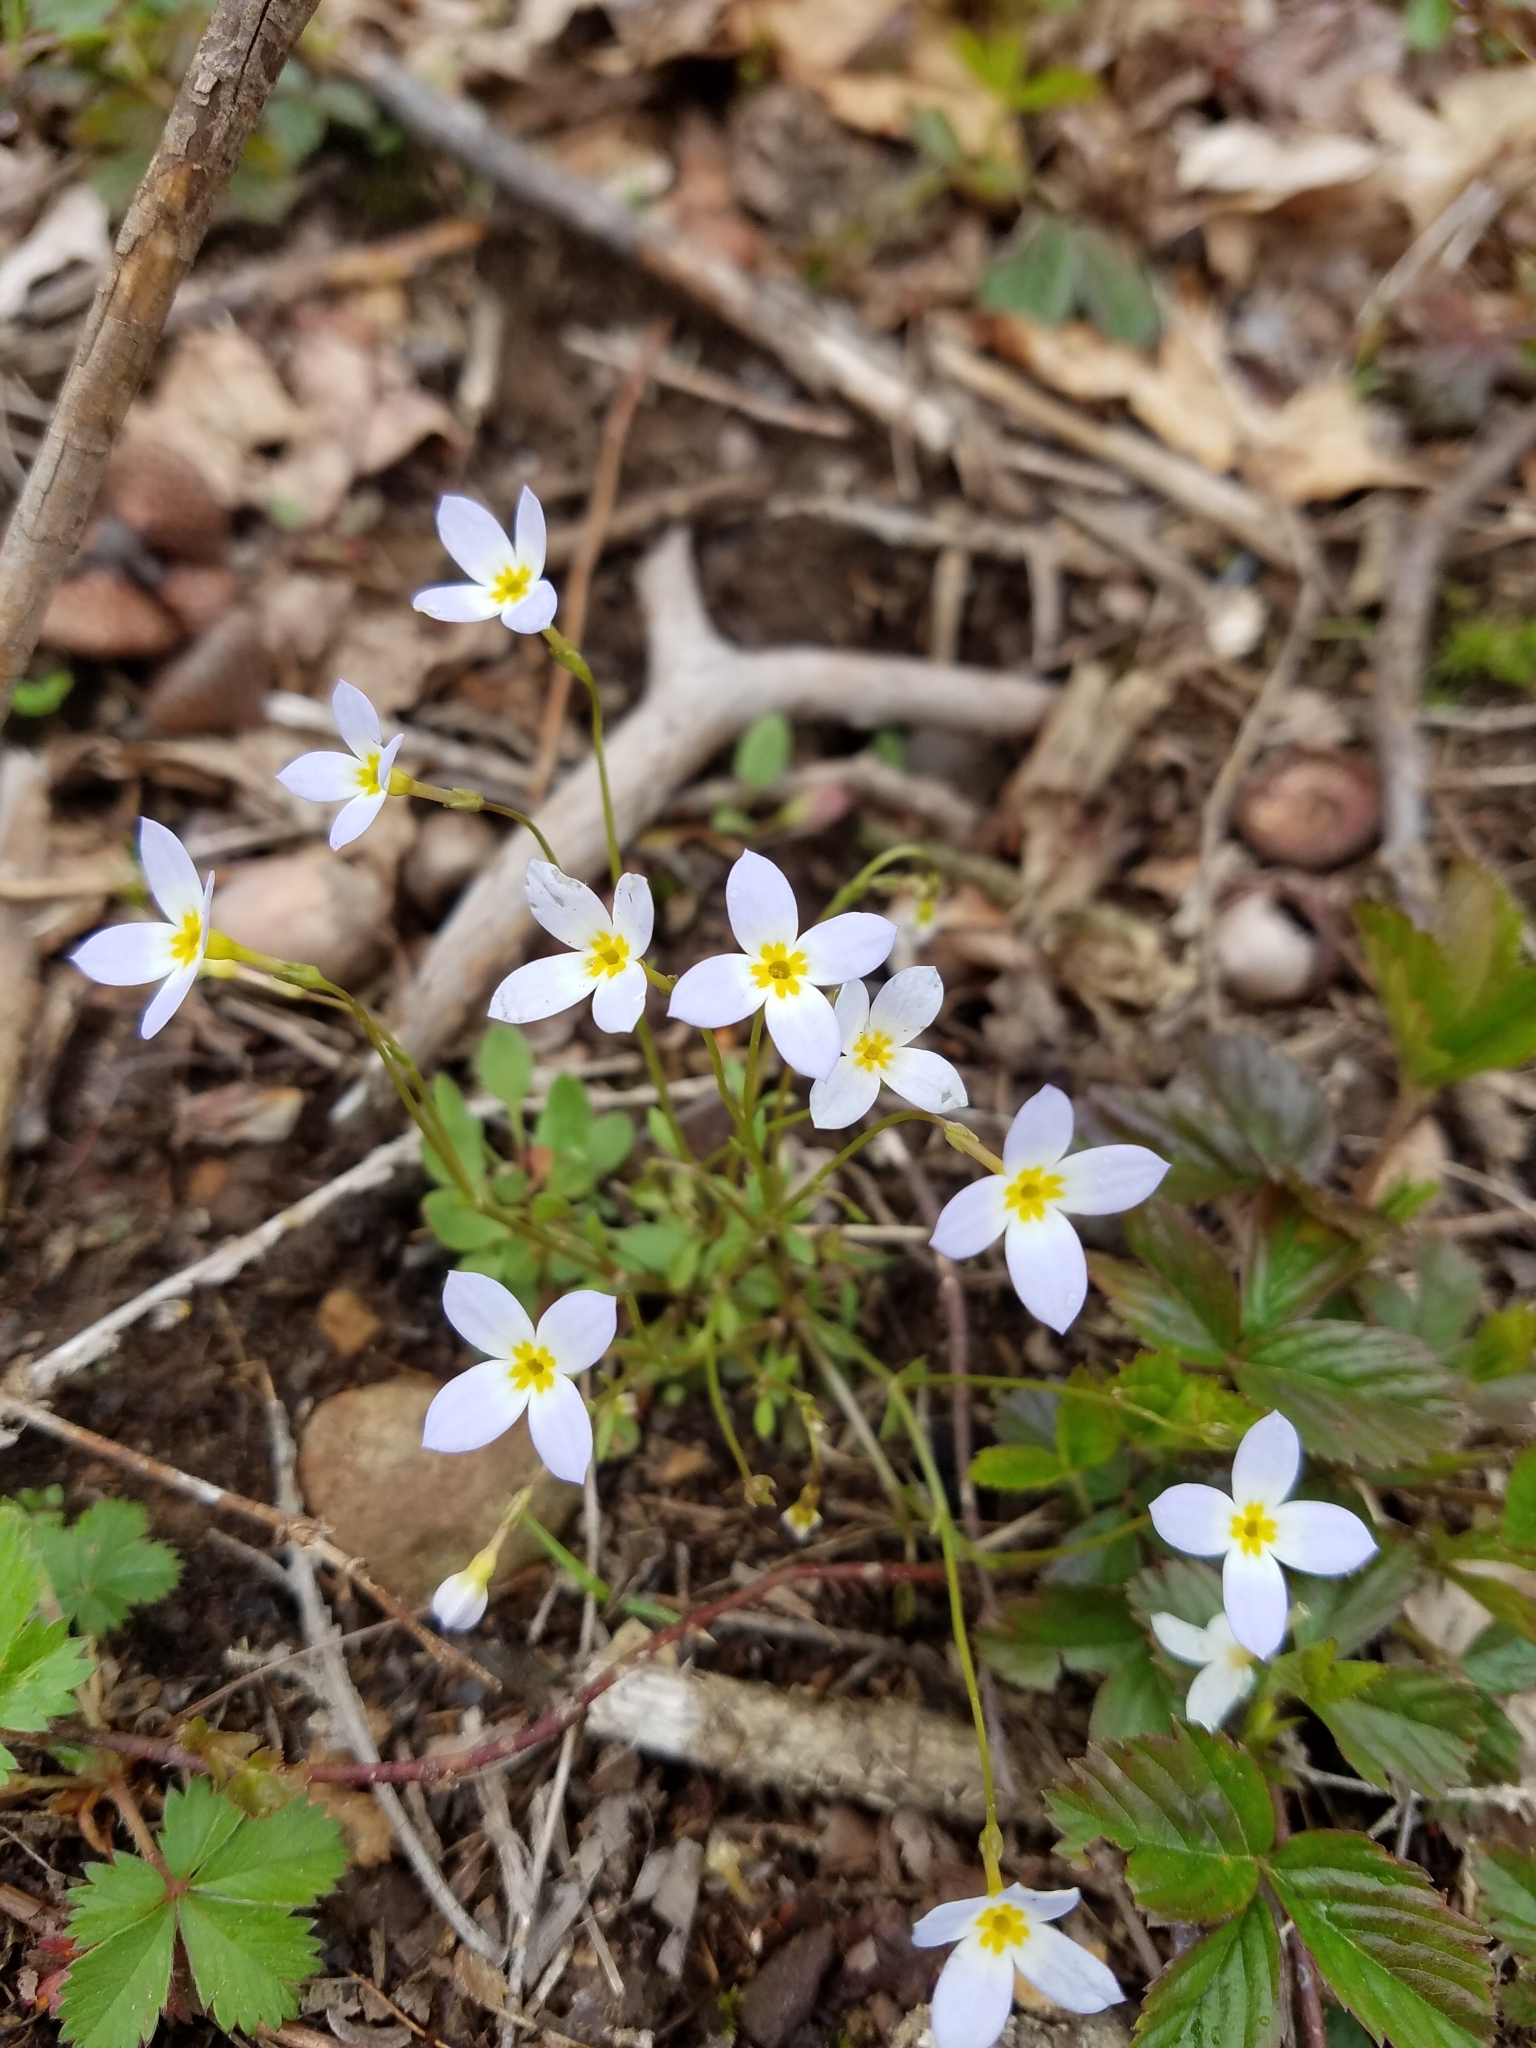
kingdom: Plantae
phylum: Tracheophyta
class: Magnoliopsida
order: Gentianales
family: Rubiaceae
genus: Houstonia
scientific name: Houstonia caerulea
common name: Bluets
